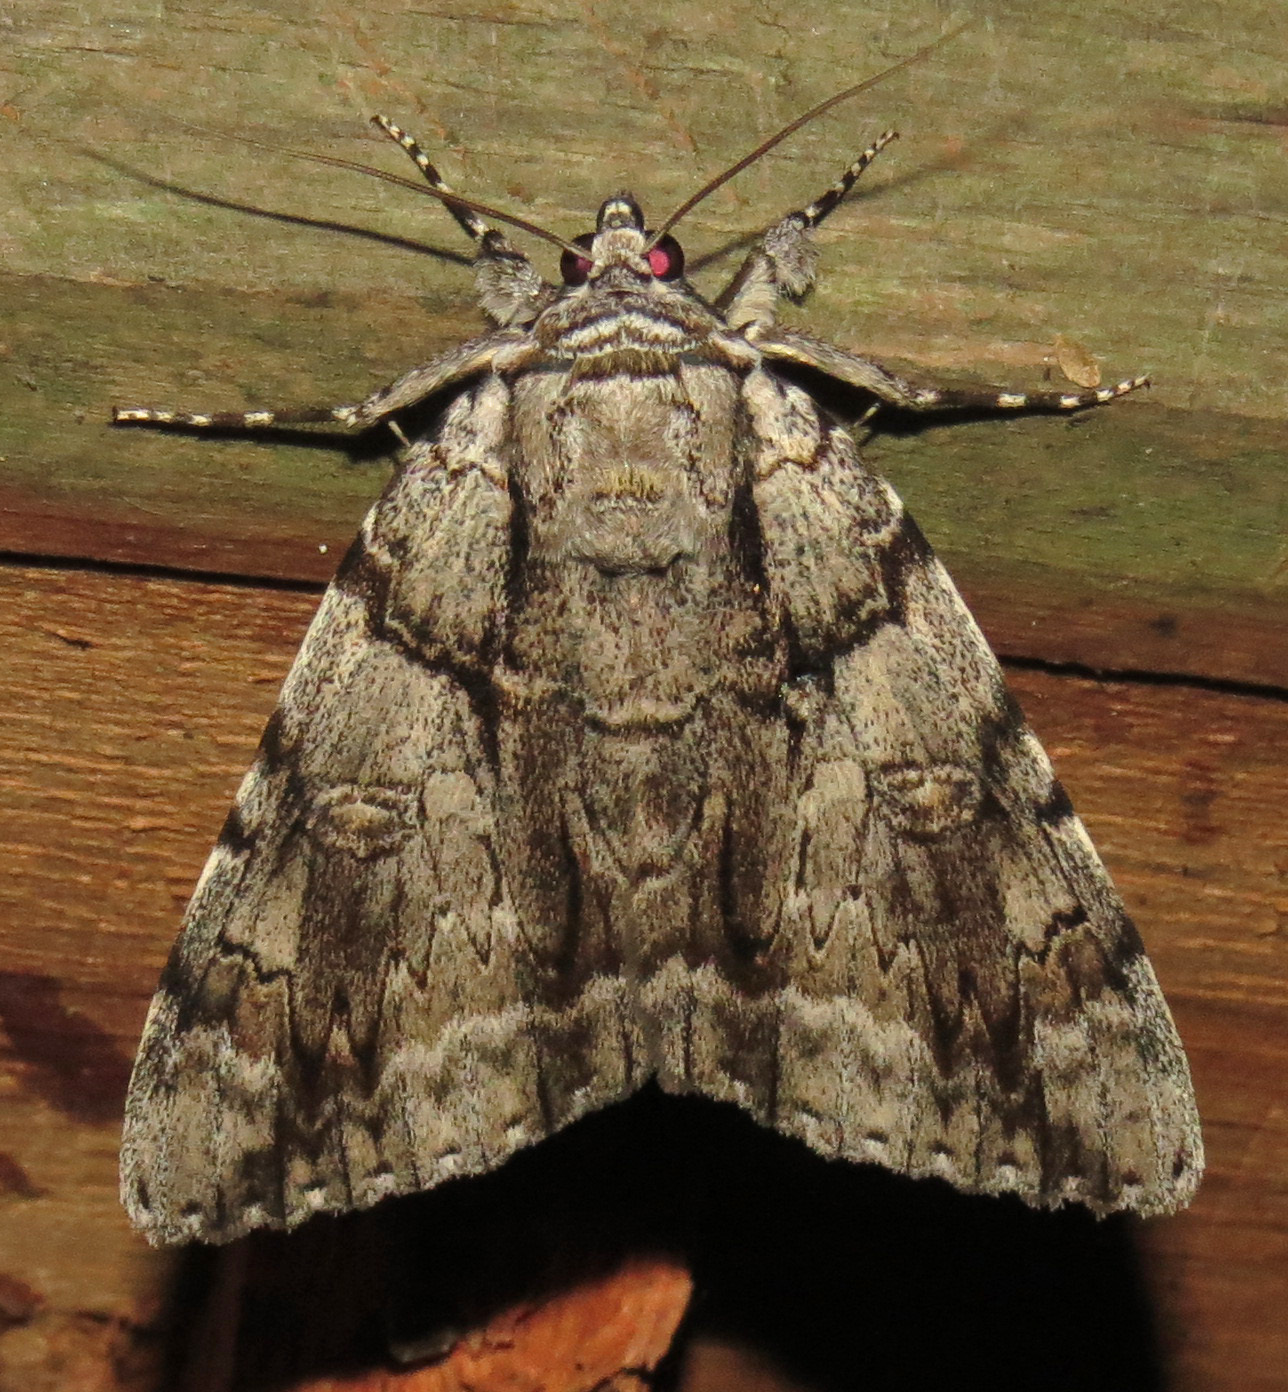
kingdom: Animalia
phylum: Arthropoda
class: Insecta
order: Lepidoptera
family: Erebidae
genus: Catocala
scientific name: Catocala vidua
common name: The widow
